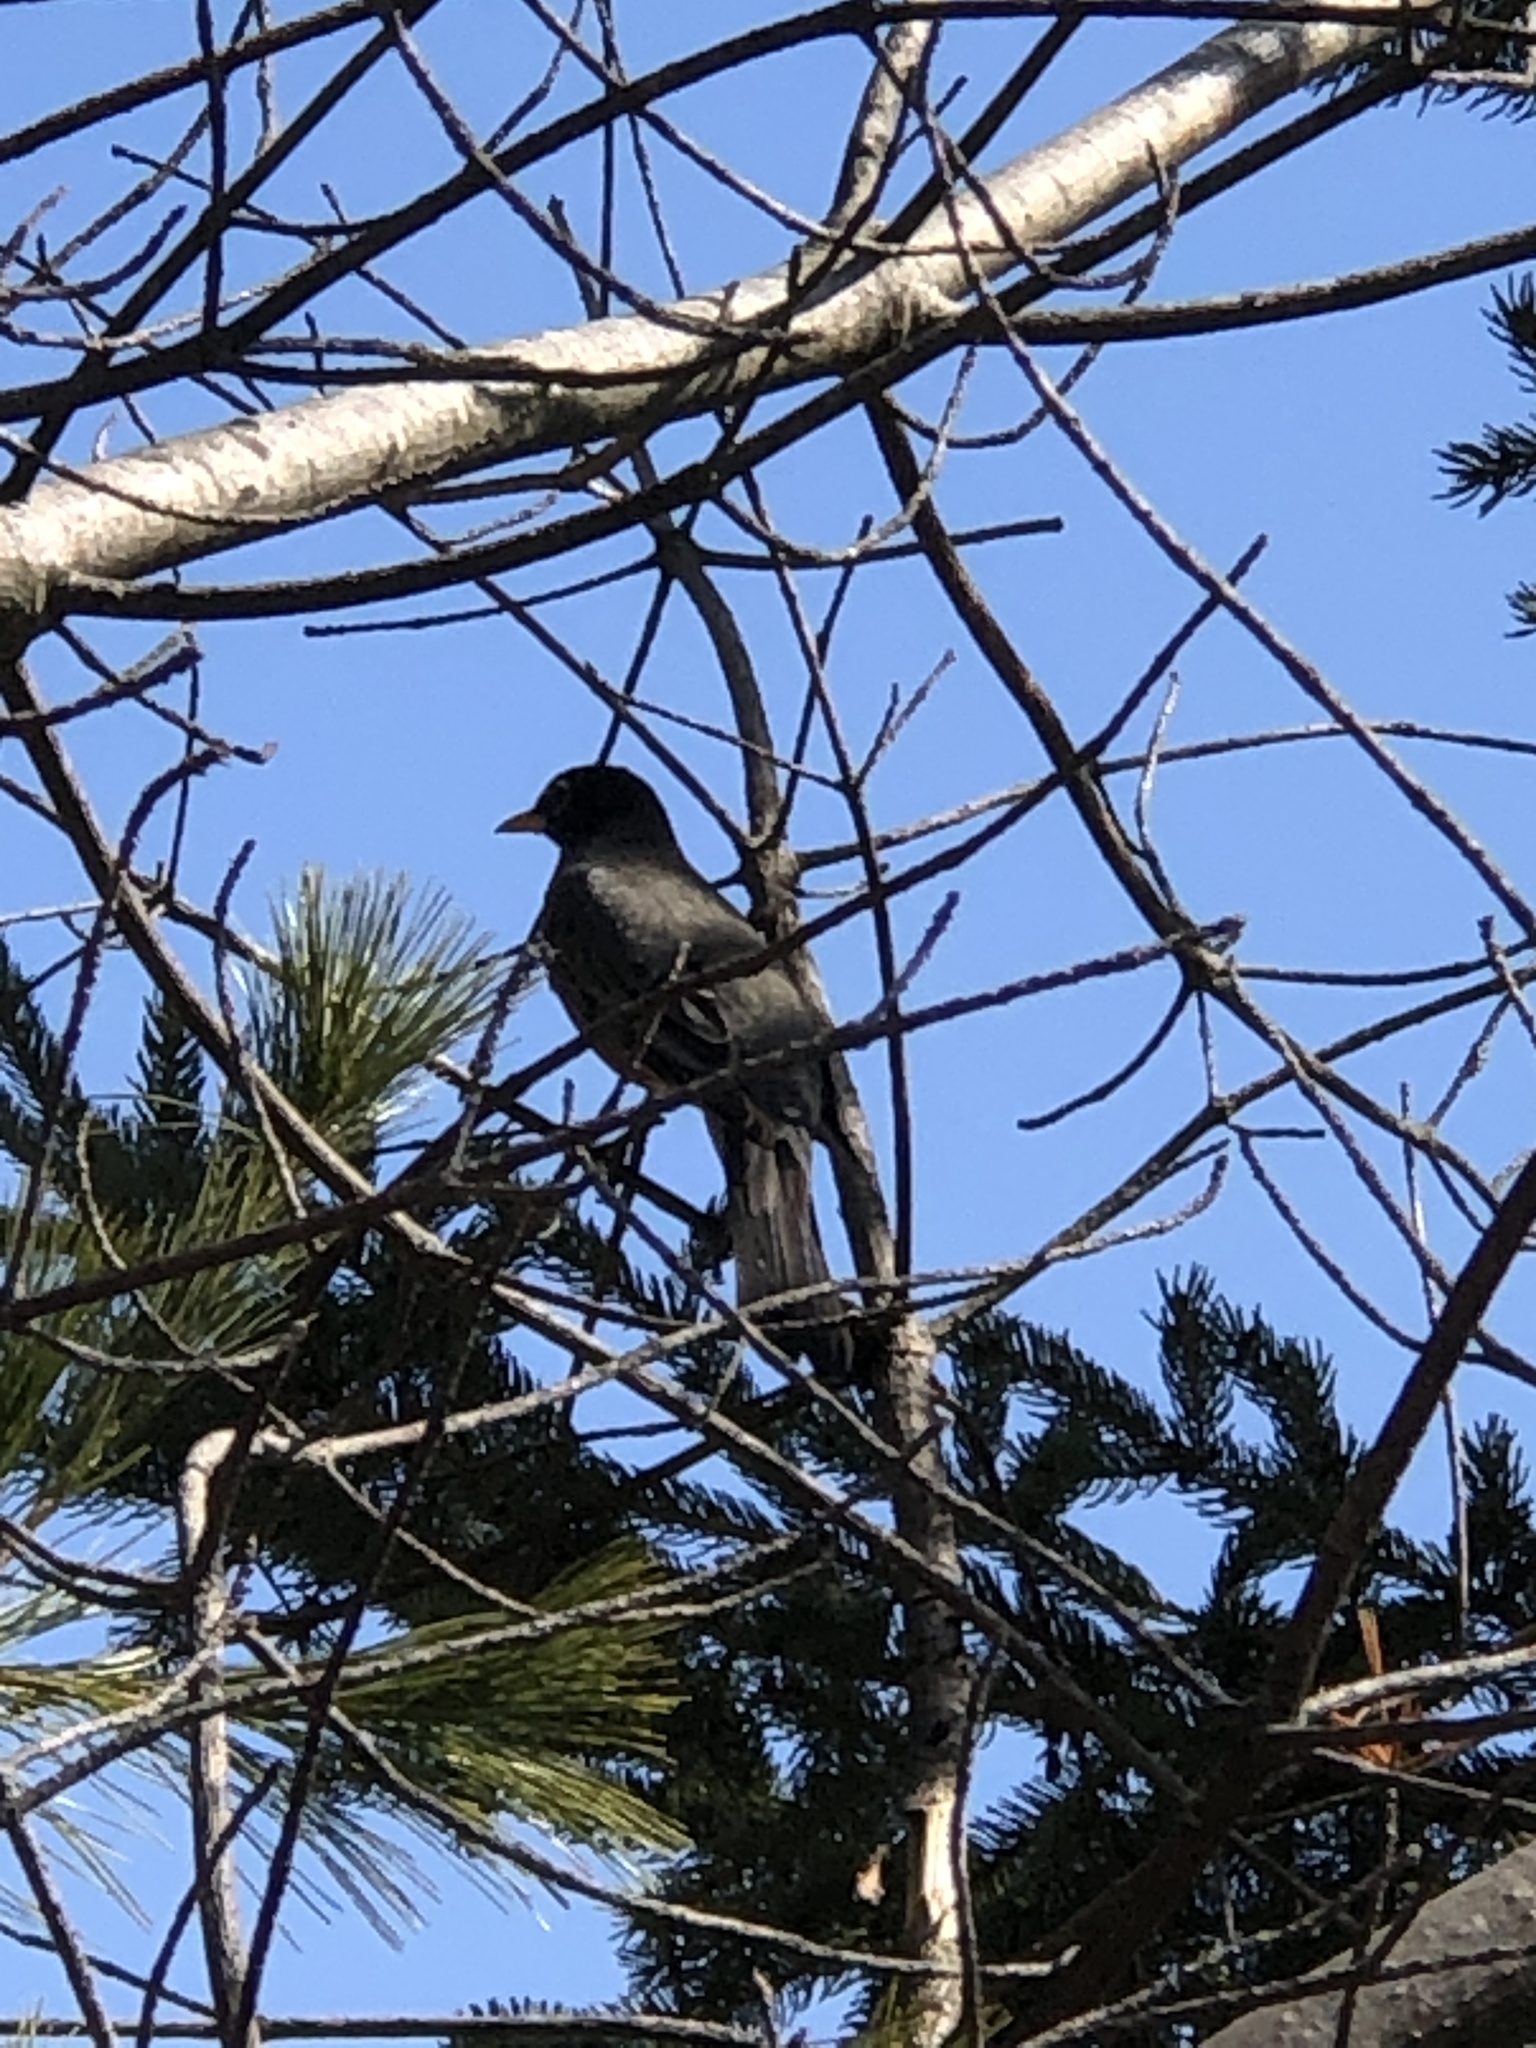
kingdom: Animalia
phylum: Chordata
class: Aves
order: Passeriformes
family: Turdidae
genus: Turdus
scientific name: Turdus migratorius
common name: American robin
